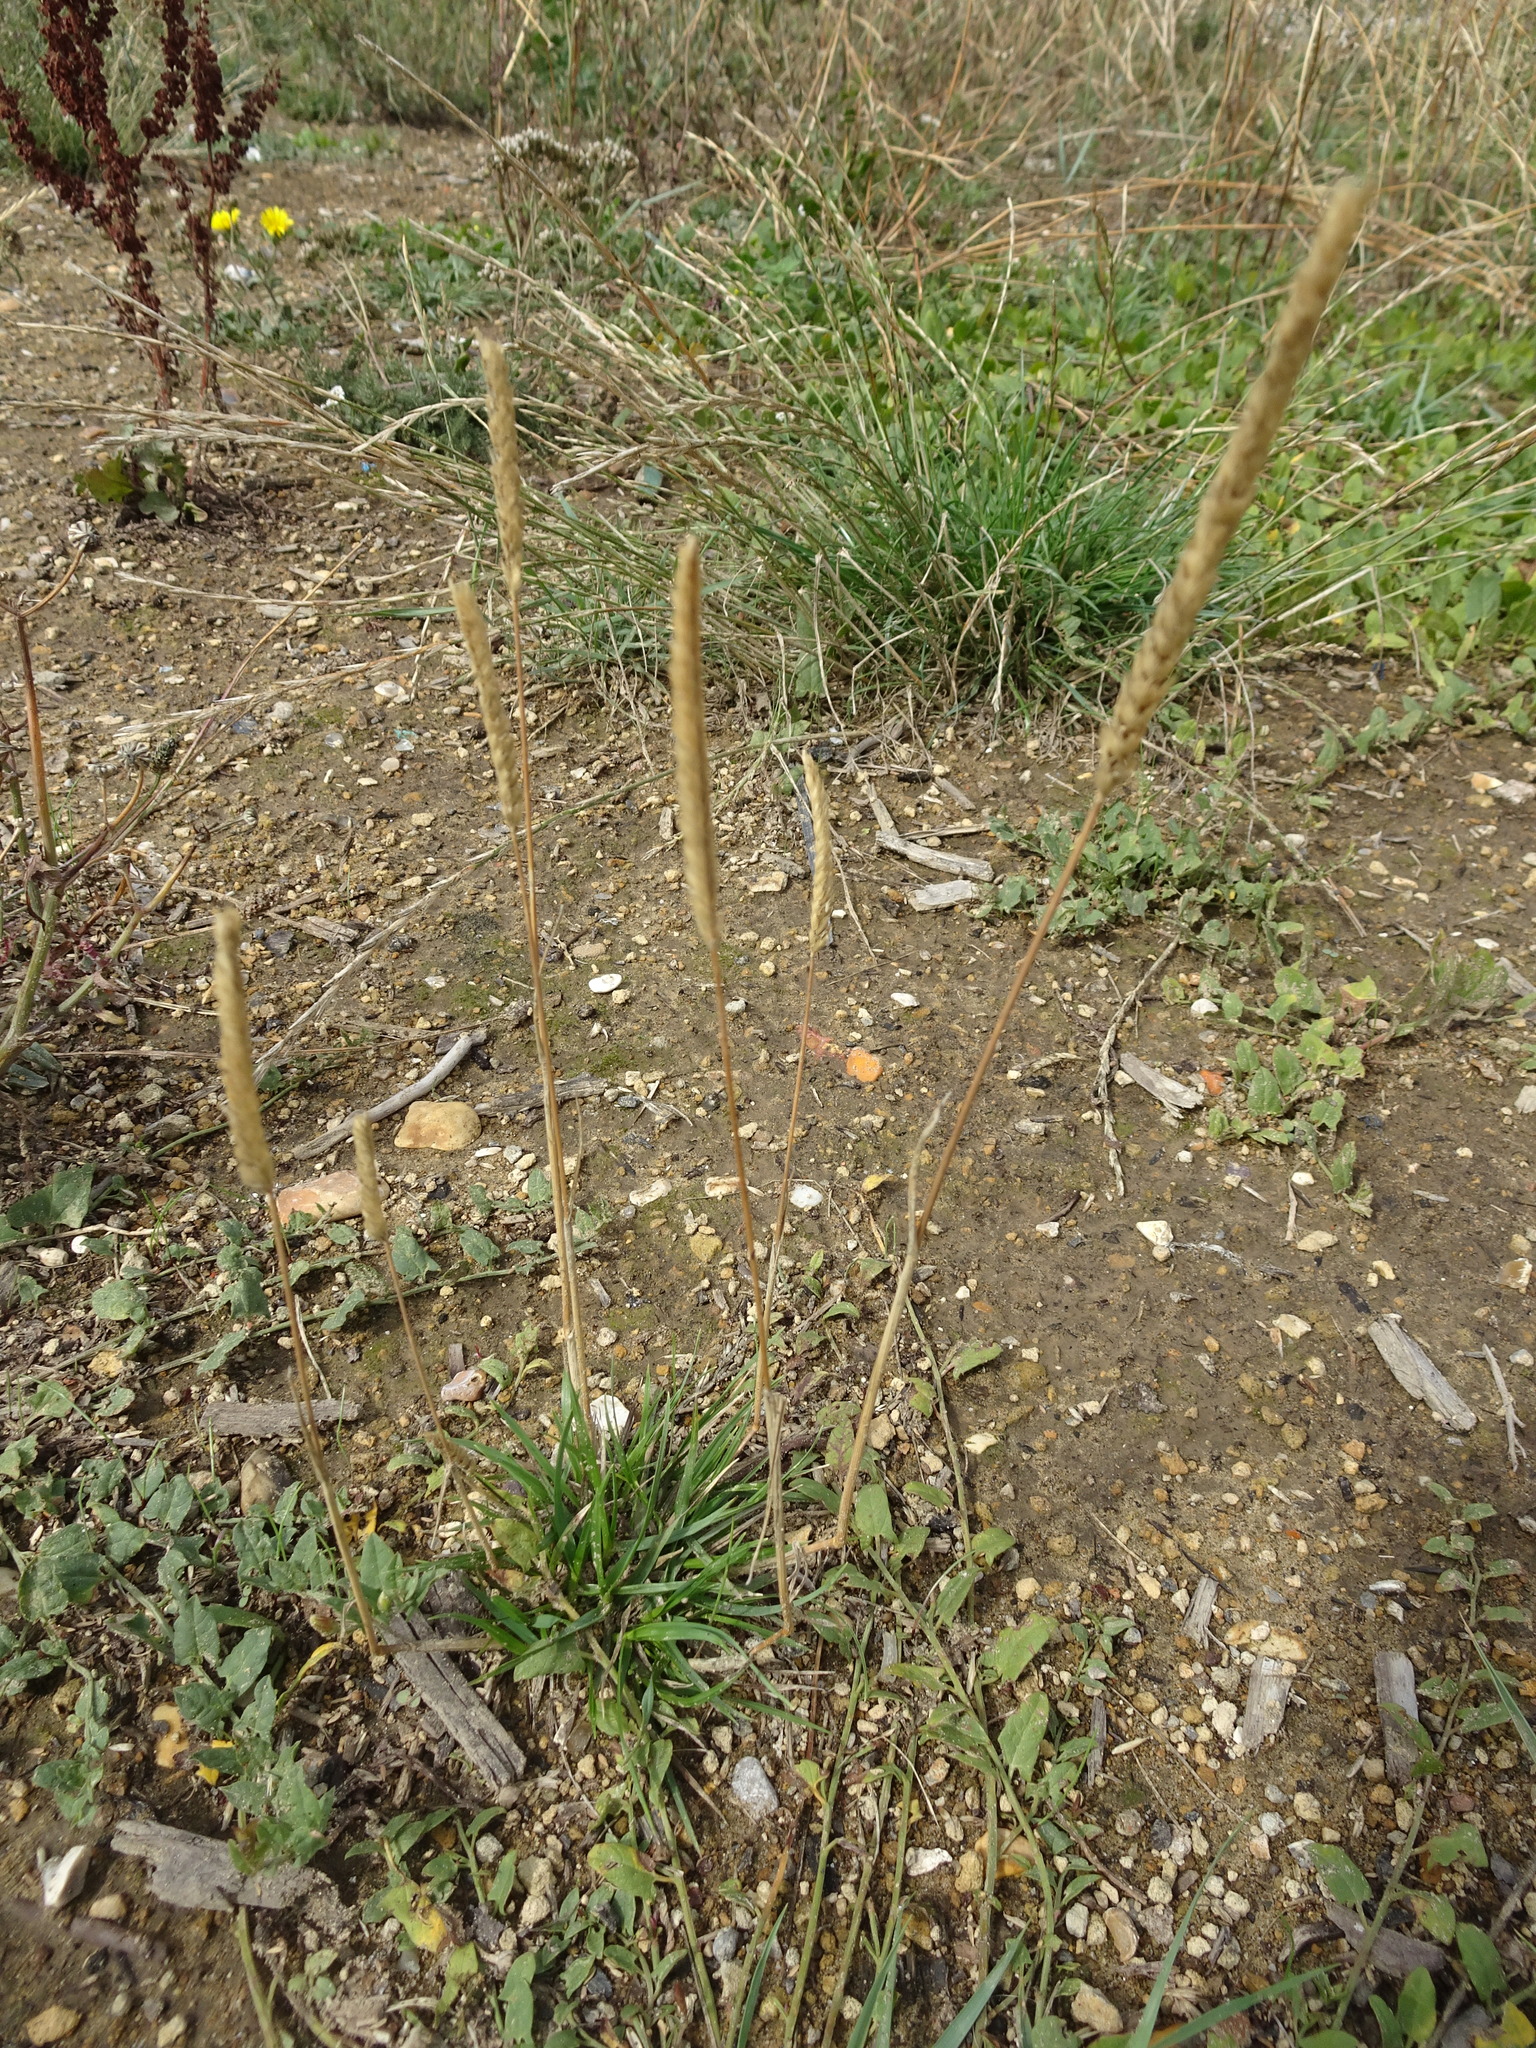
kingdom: Plantae
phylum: Tracheophyta
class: Liliopsida
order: Poales
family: Poaceae
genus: Cynosurus
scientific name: Cynosurus cristatus
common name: Crested dog's-tail
